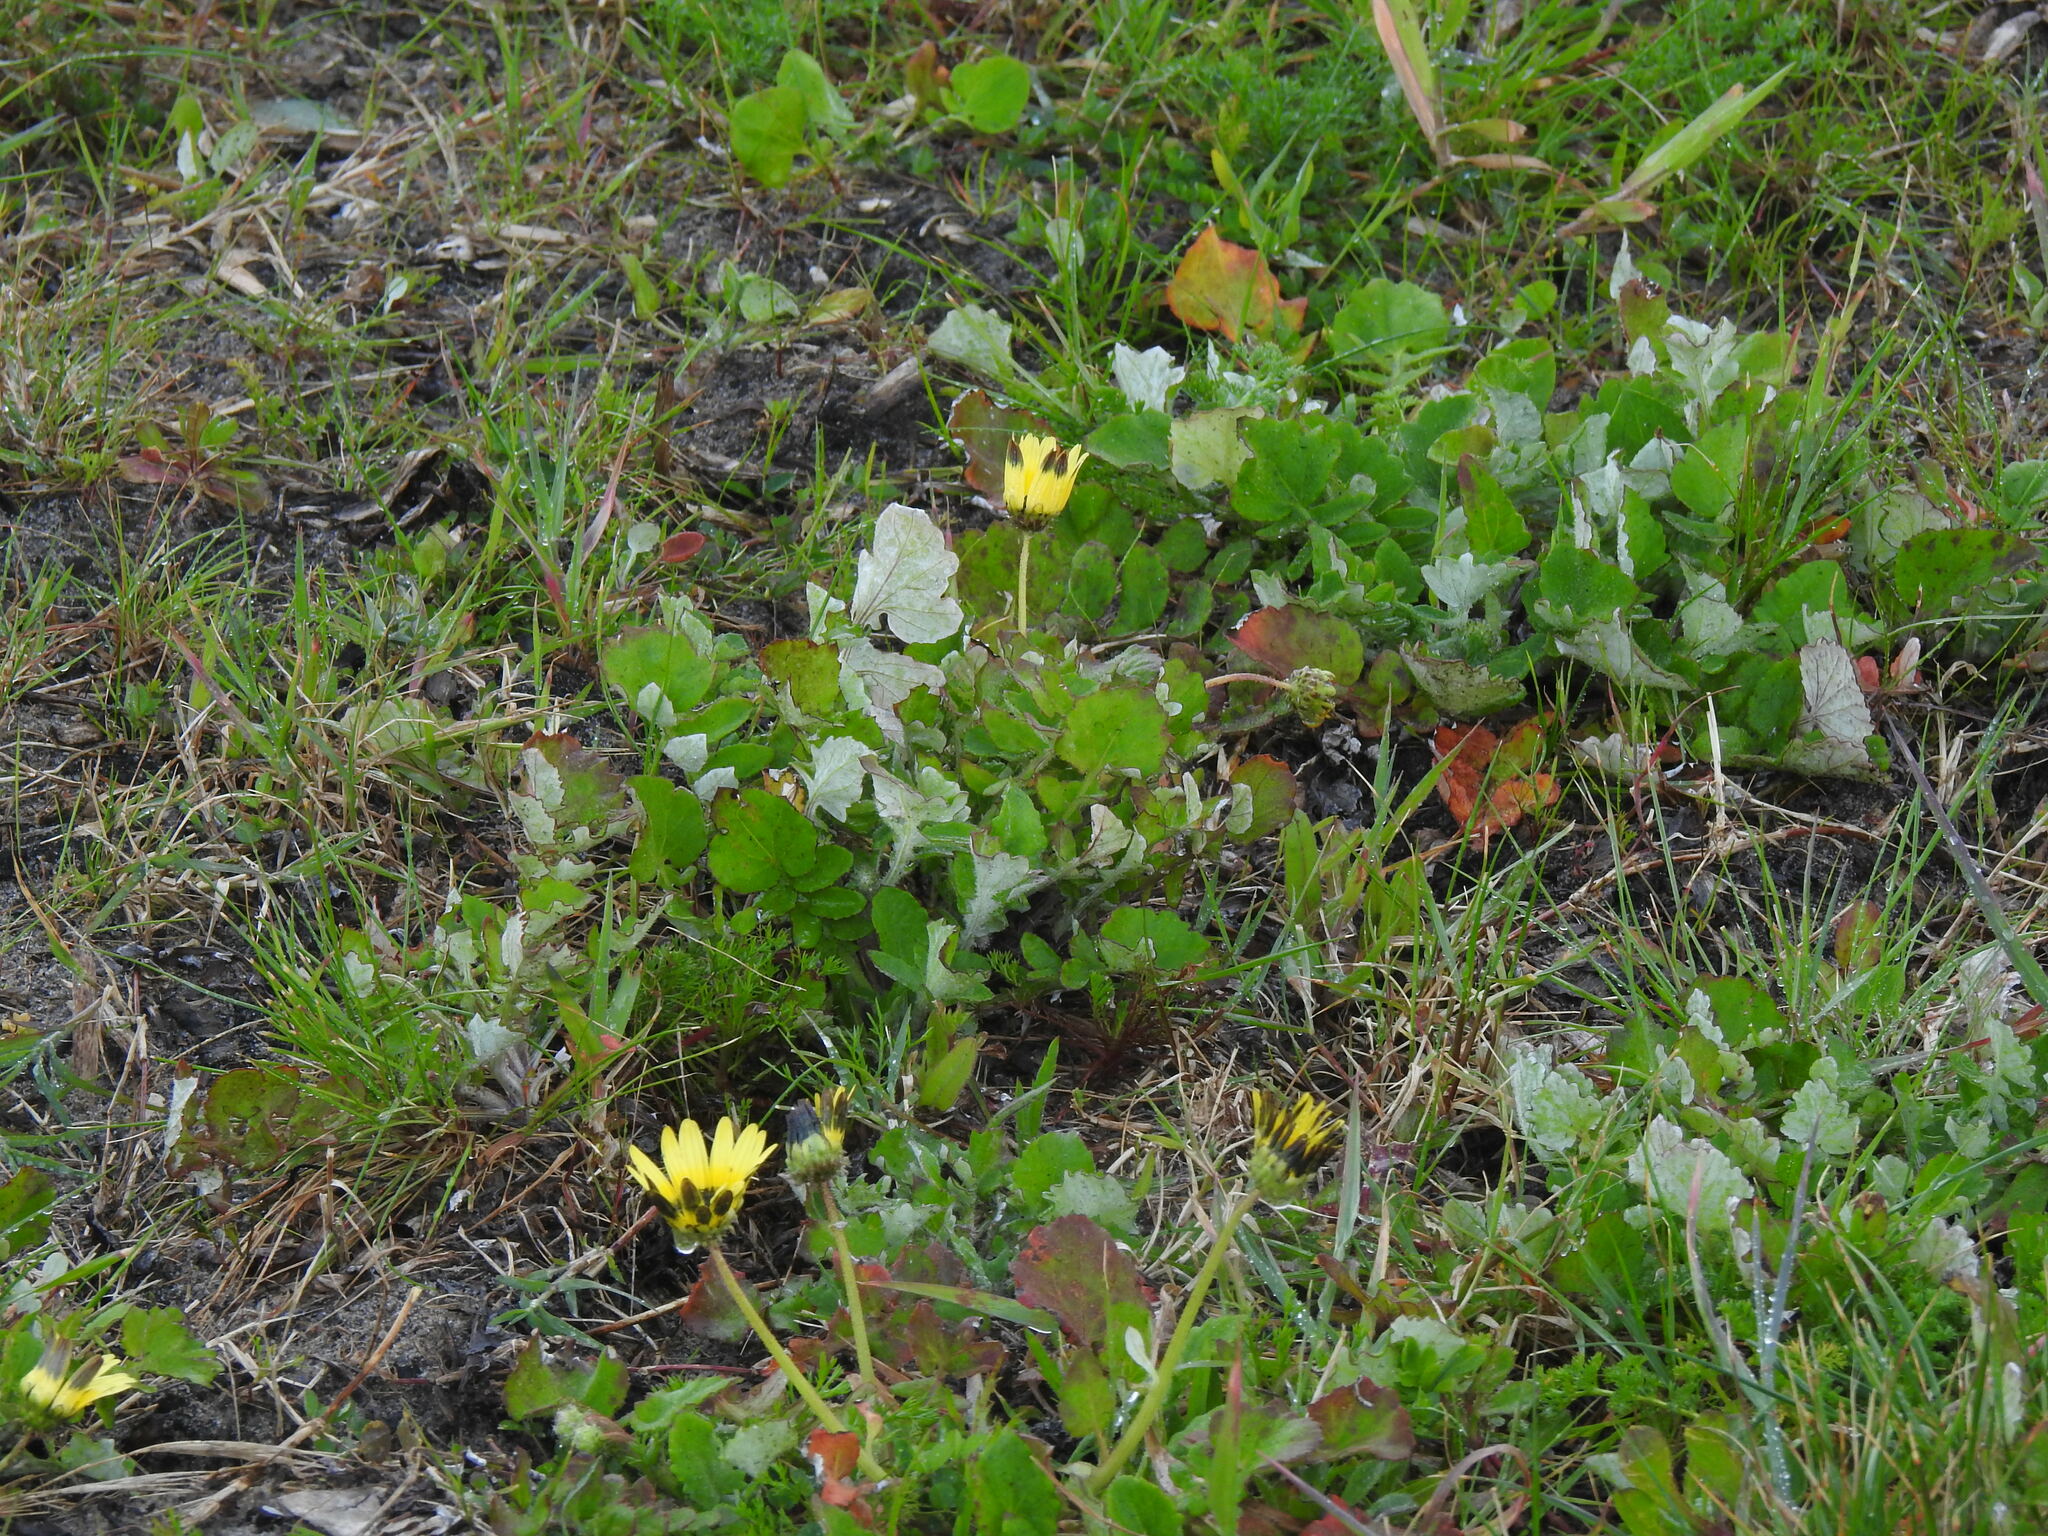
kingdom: Plantae
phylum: Tracheophyta
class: Magnoliopsida
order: Asterales
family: Asteraceae
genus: Arctotheca
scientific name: Arctotheca calendula
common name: Capeweed
